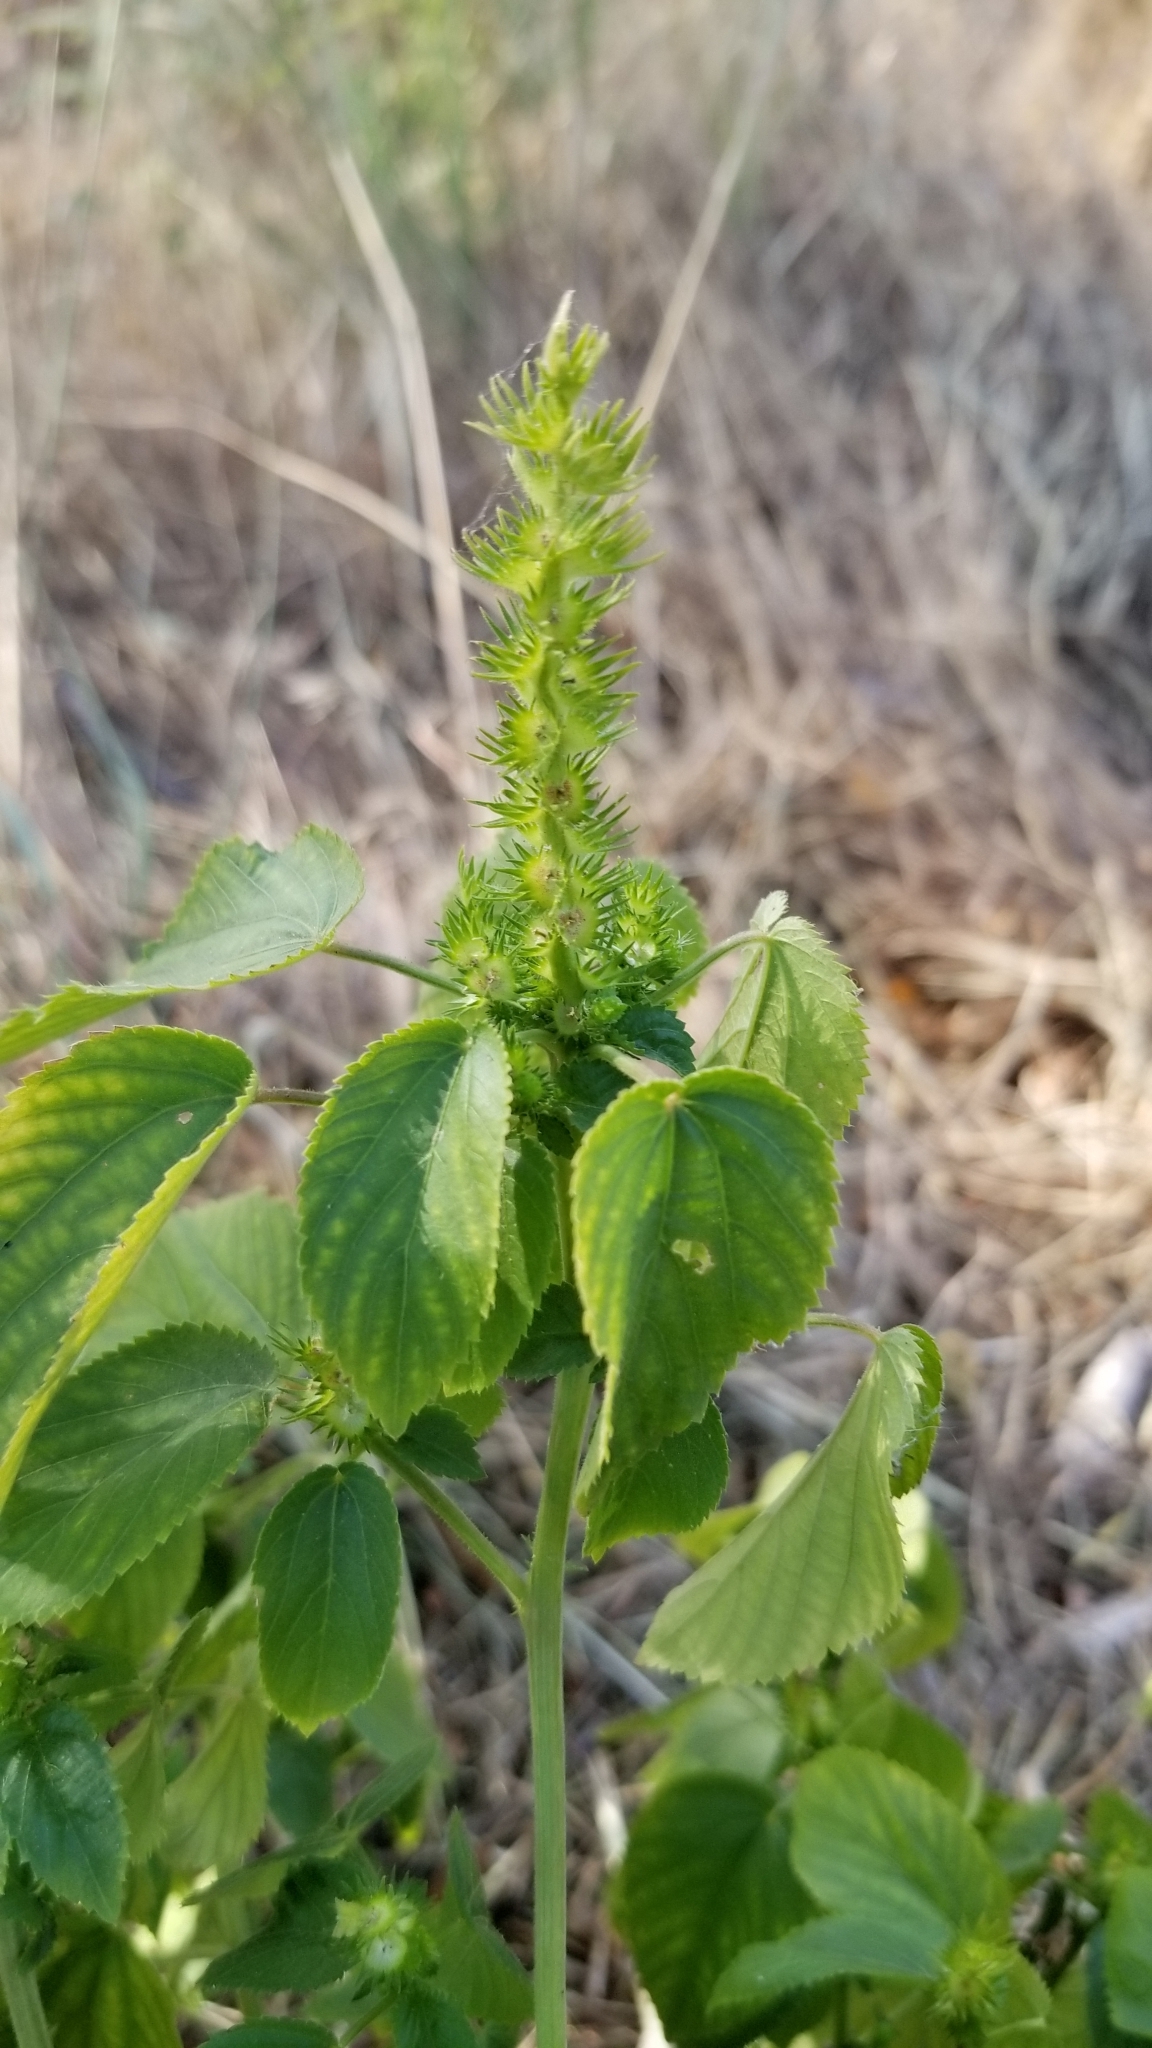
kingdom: Plantae
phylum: Tracheophyta
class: Magnoliopsida
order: Malpighiales
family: Euphorbiaceae
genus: Acalypha
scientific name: Acalypha ostryifolia
